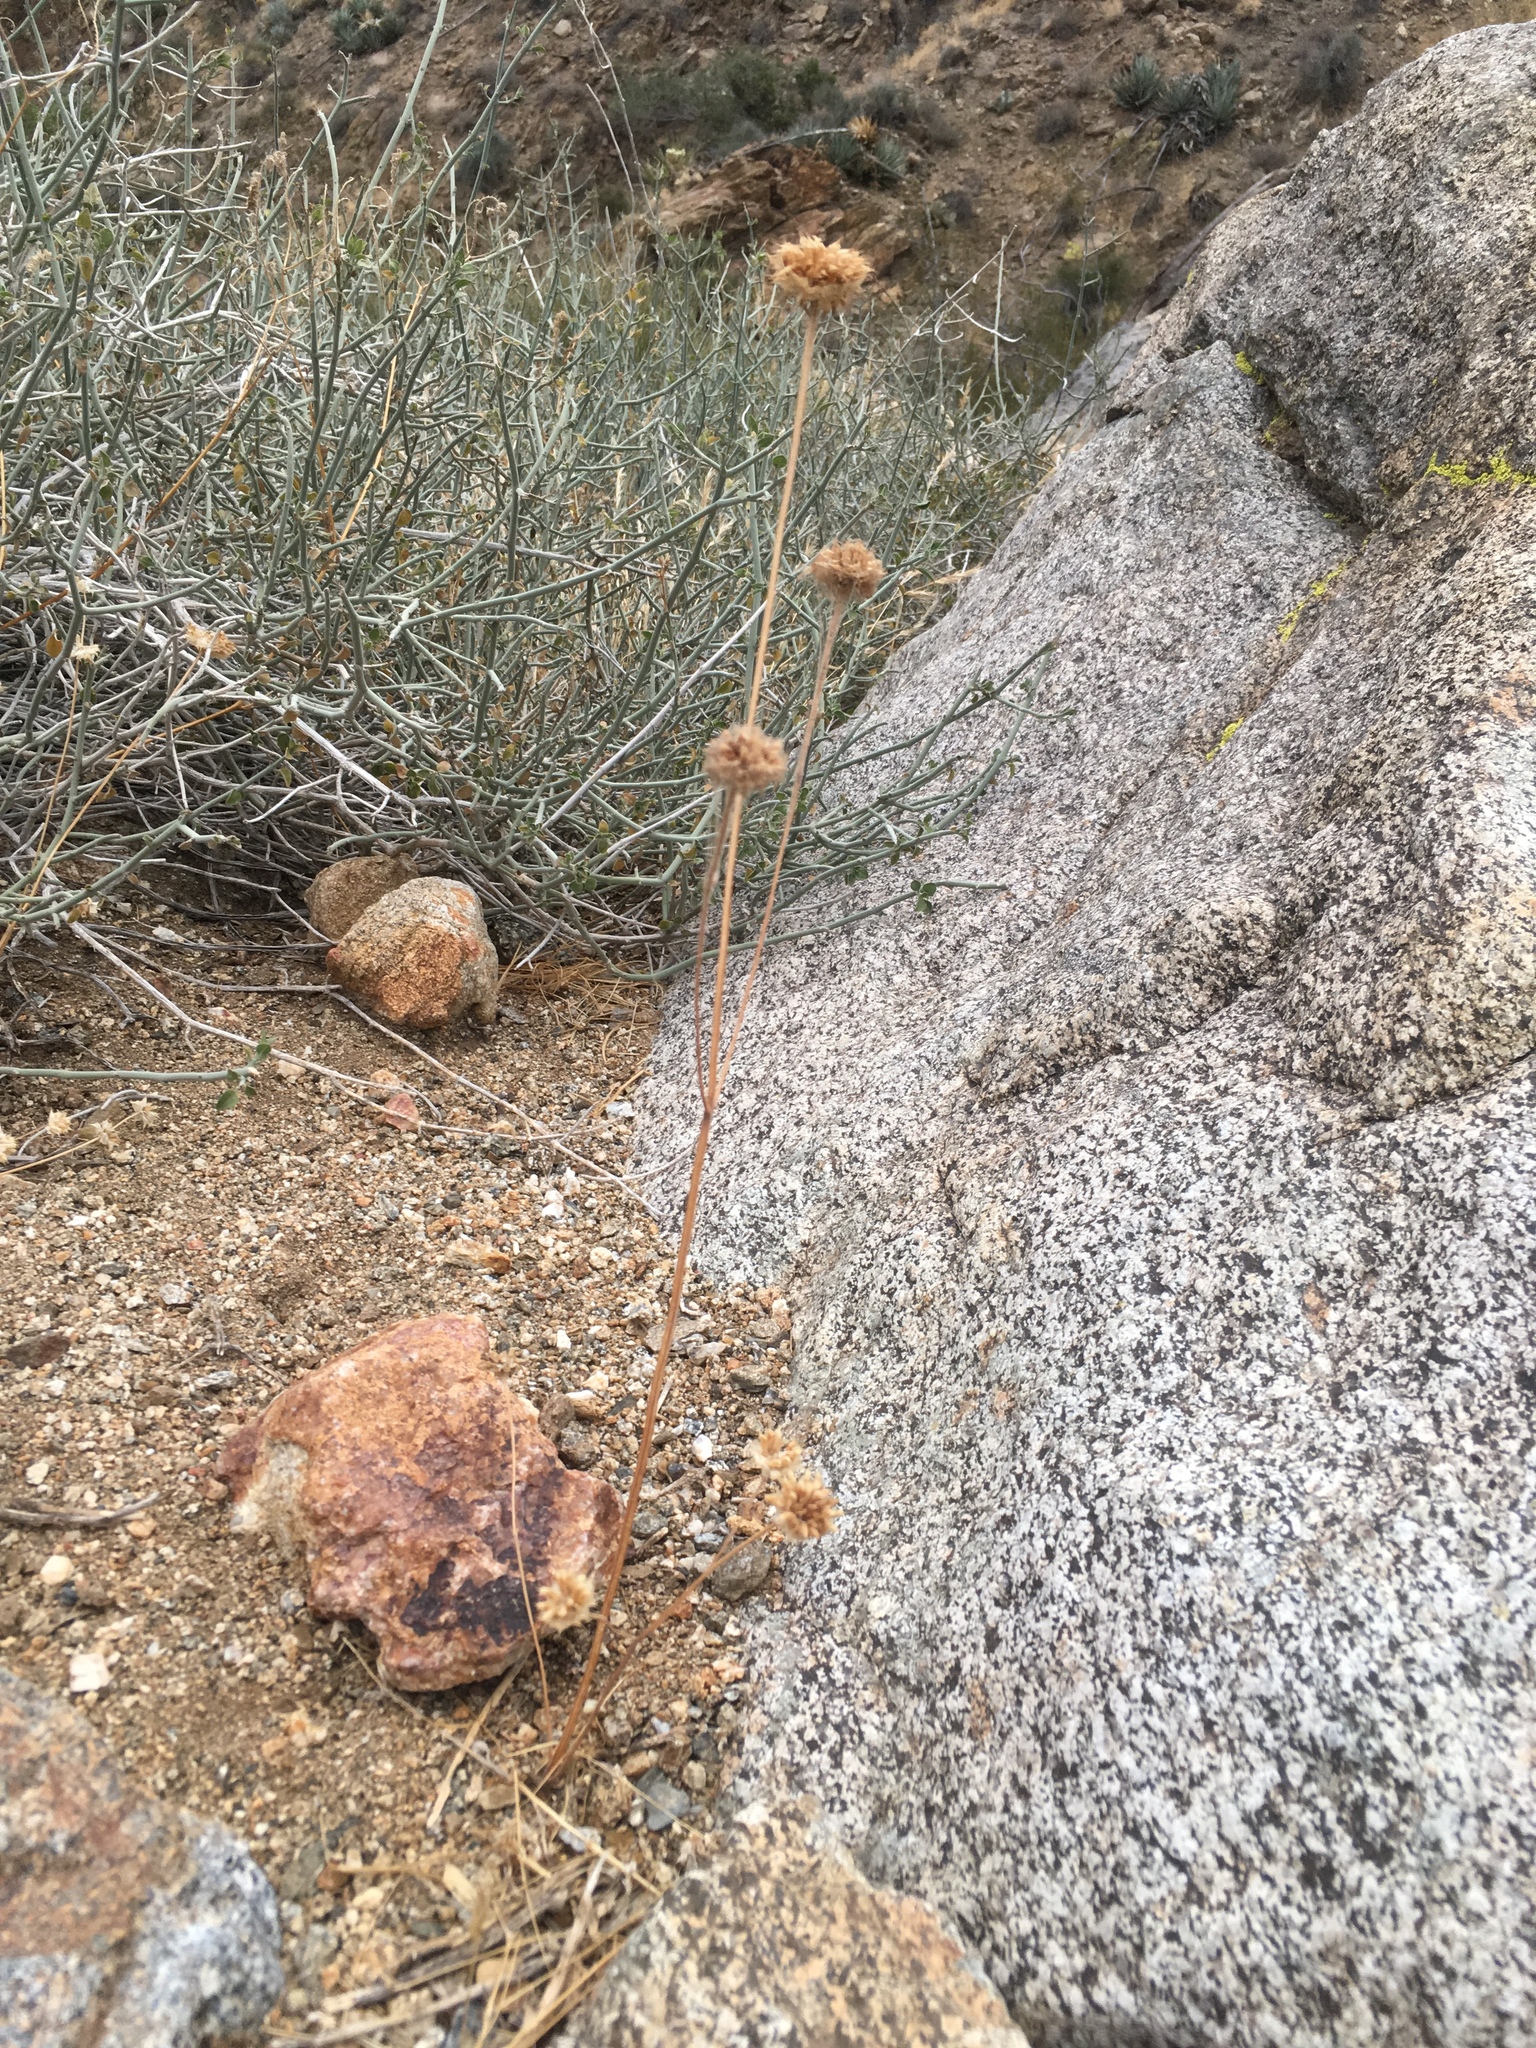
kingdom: Plantae
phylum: Tracheophyta
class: Magnoliopsida
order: Lamiales
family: Lamiaceae
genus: Salvia
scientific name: Salvia columbariae
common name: Chia
